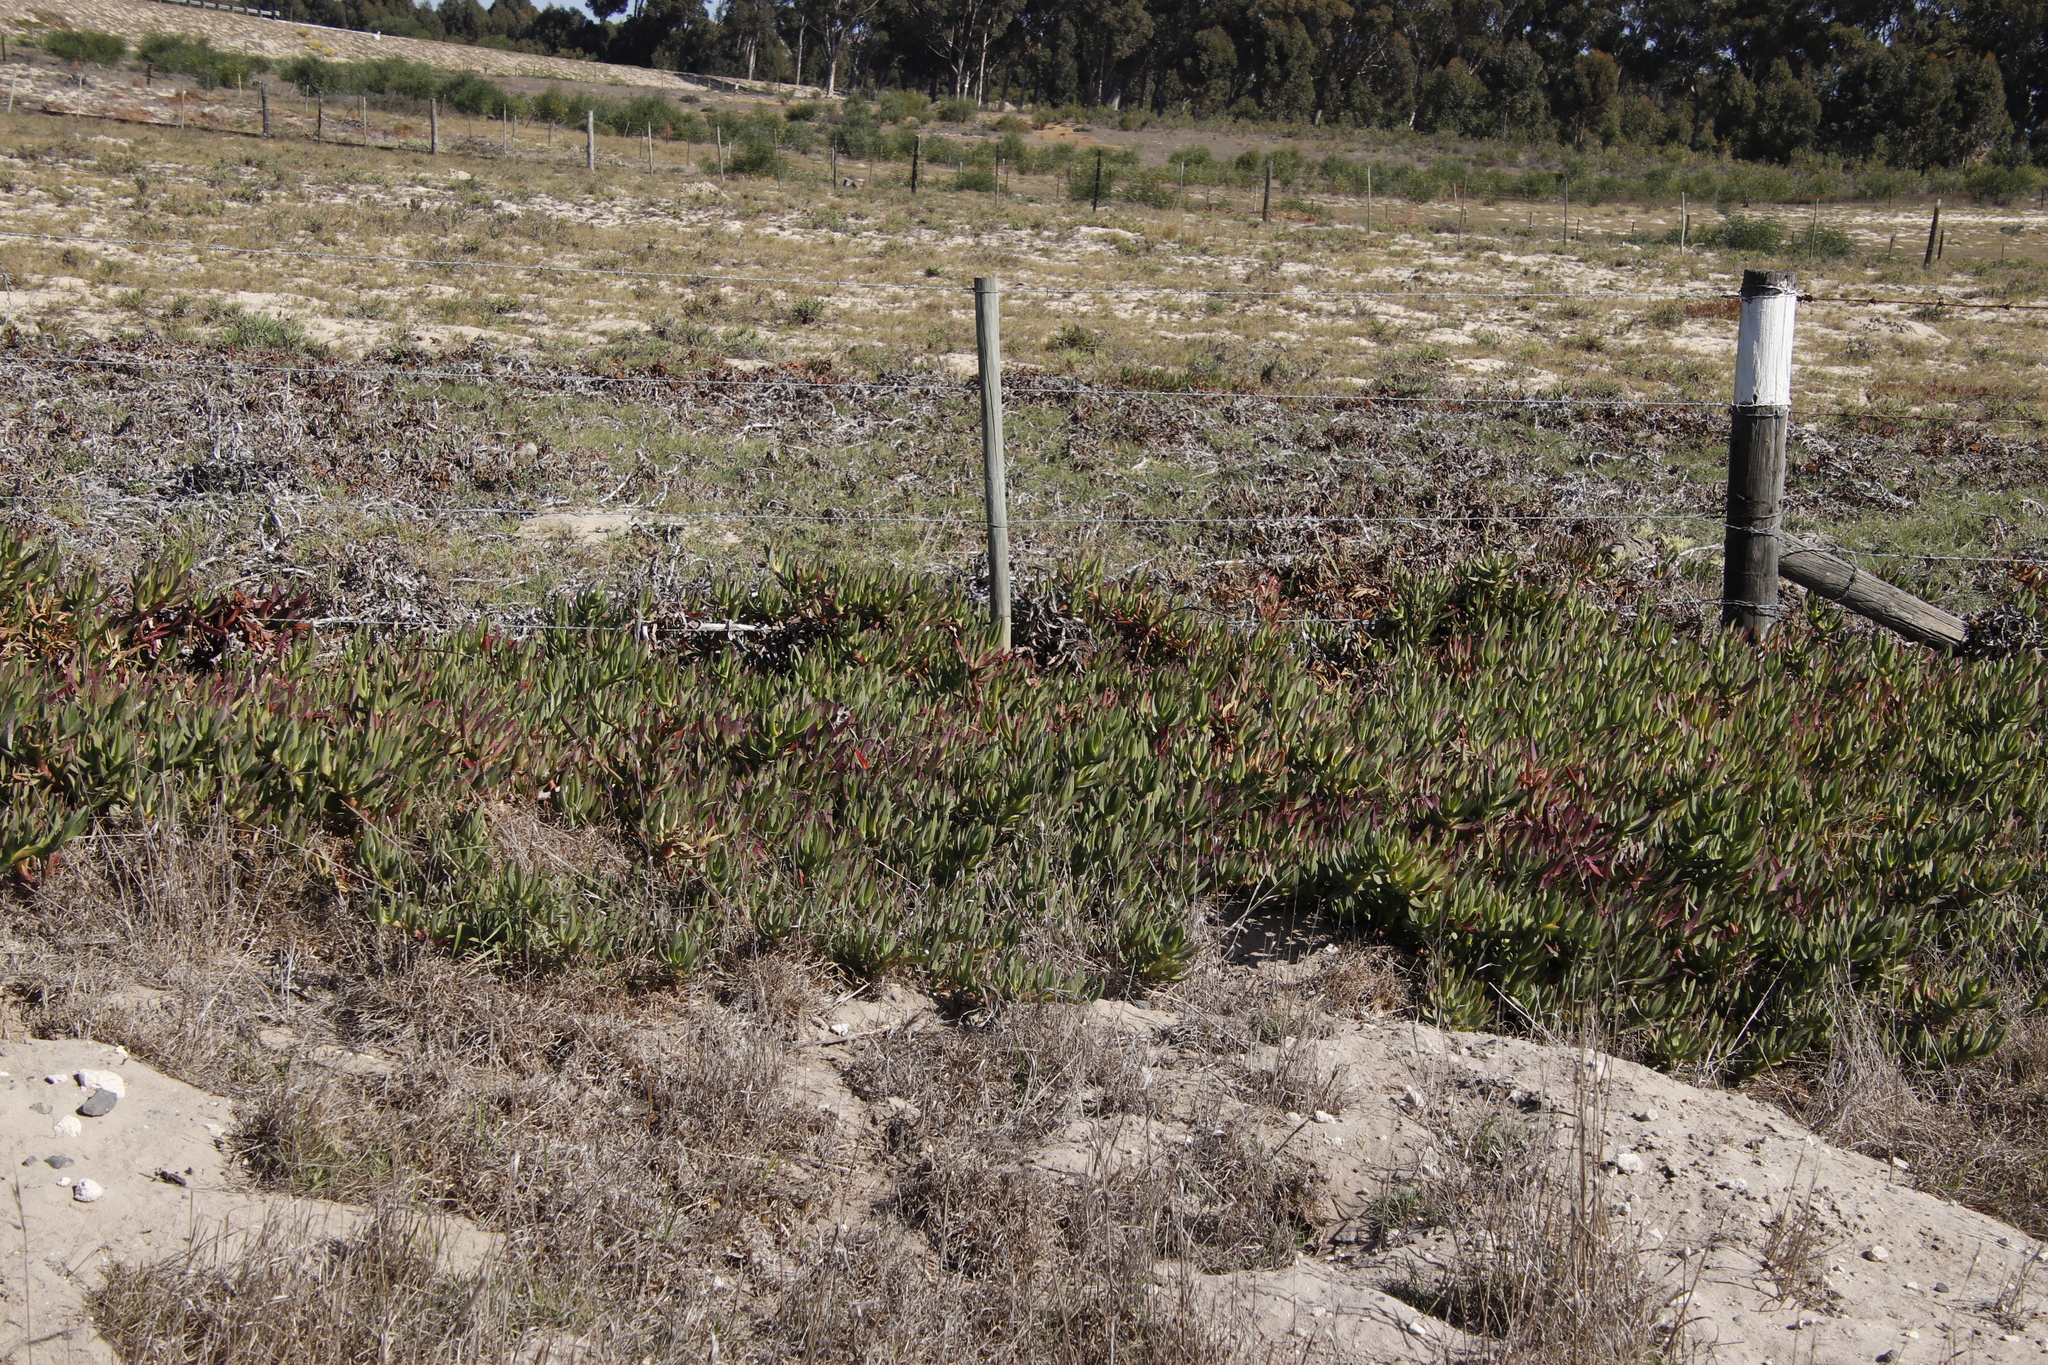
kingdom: Plantae
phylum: Tracheophyta
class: Magnoliopsida
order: Caryophyllales
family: Aizoaceae
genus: Carpobrotus
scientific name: Carpobrotus edulis
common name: Hottentot-fig
